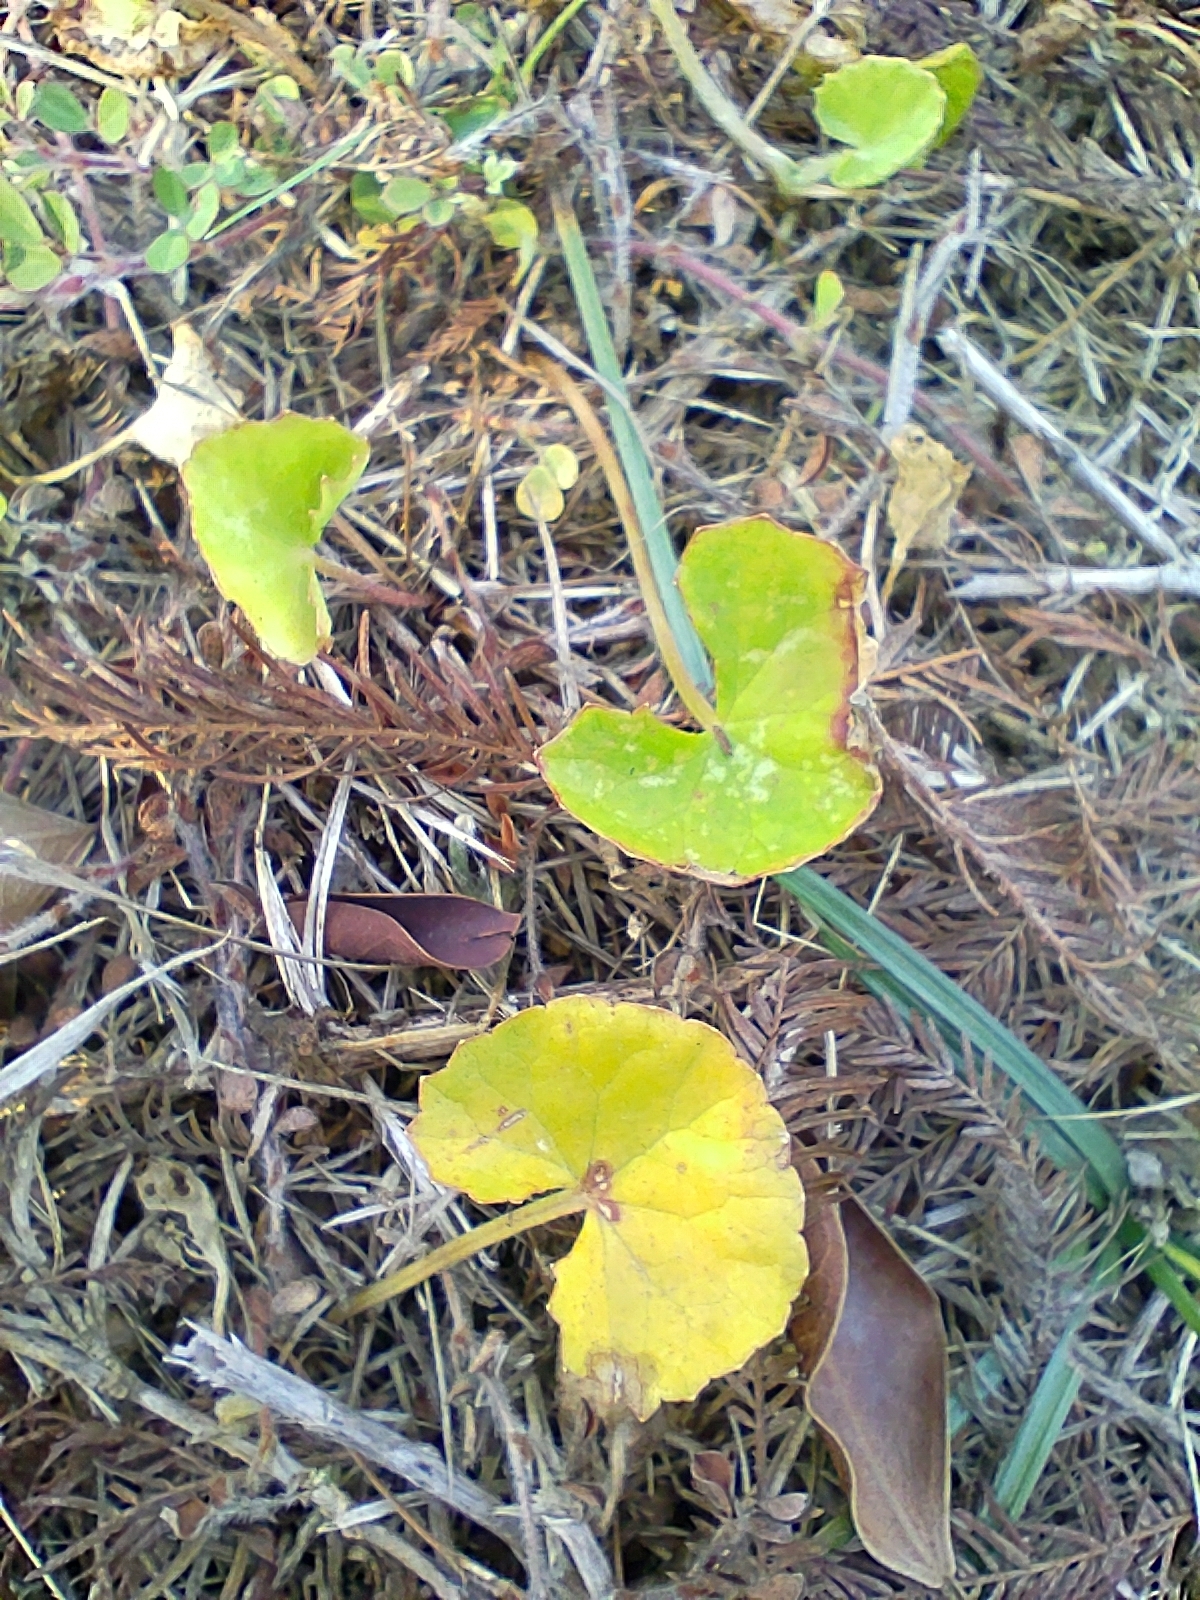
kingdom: Plantae
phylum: Tracheophyta
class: Magnoliopsida
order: Apiales
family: Apiaceae
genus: Centella
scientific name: Centella asiatica
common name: Spadeleaf
